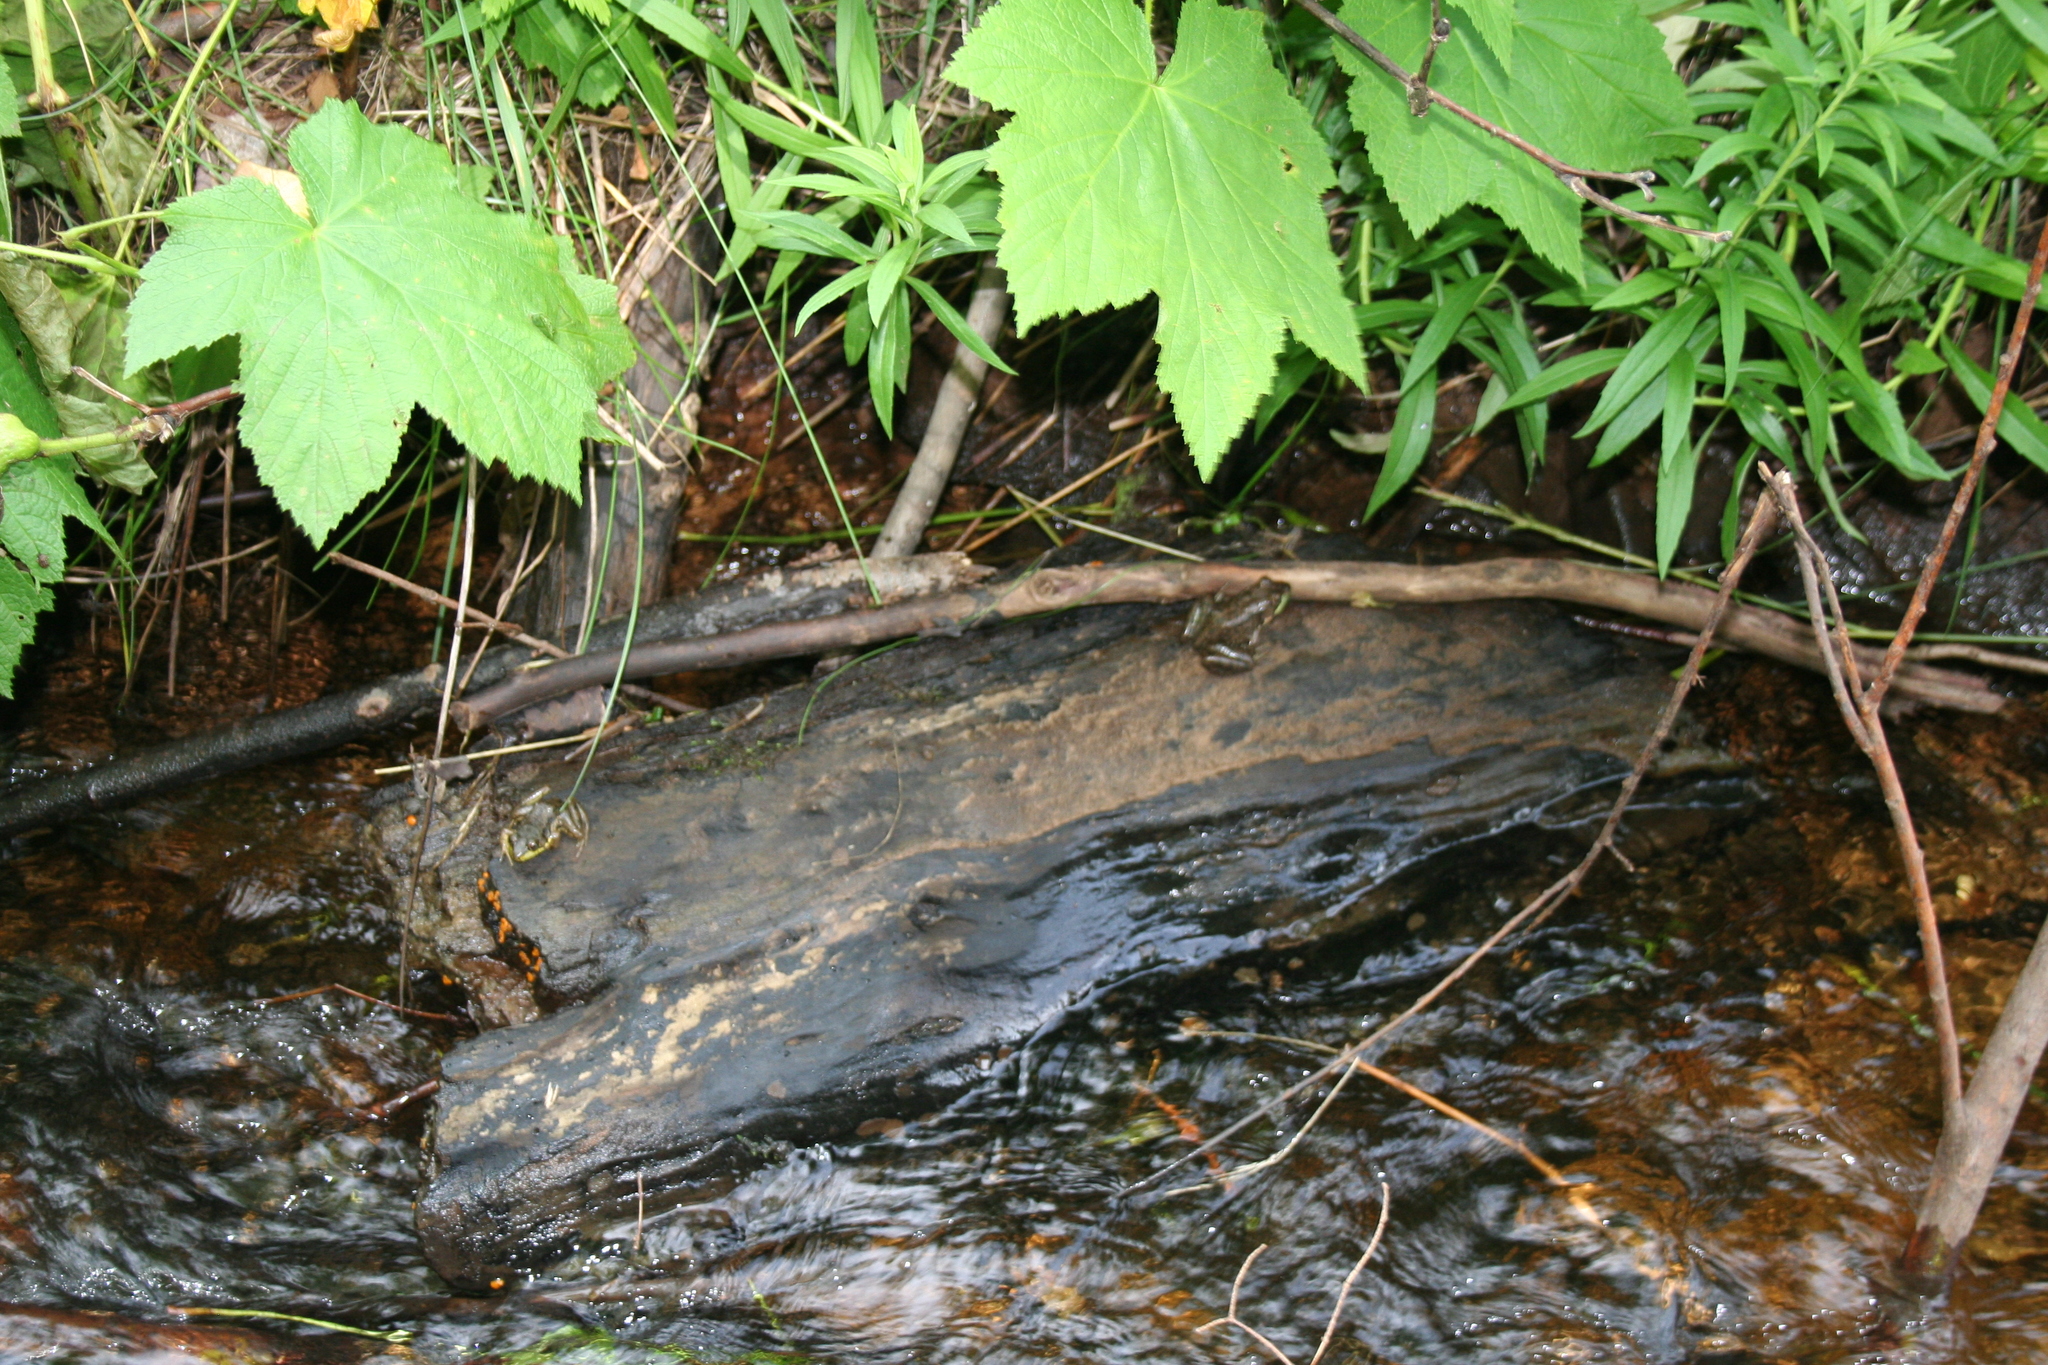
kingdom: Animalia
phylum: Chordata
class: Amphibia
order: Anura
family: Ranidae
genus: Lithobates
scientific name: Lithobates clamitans
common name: Green frog
